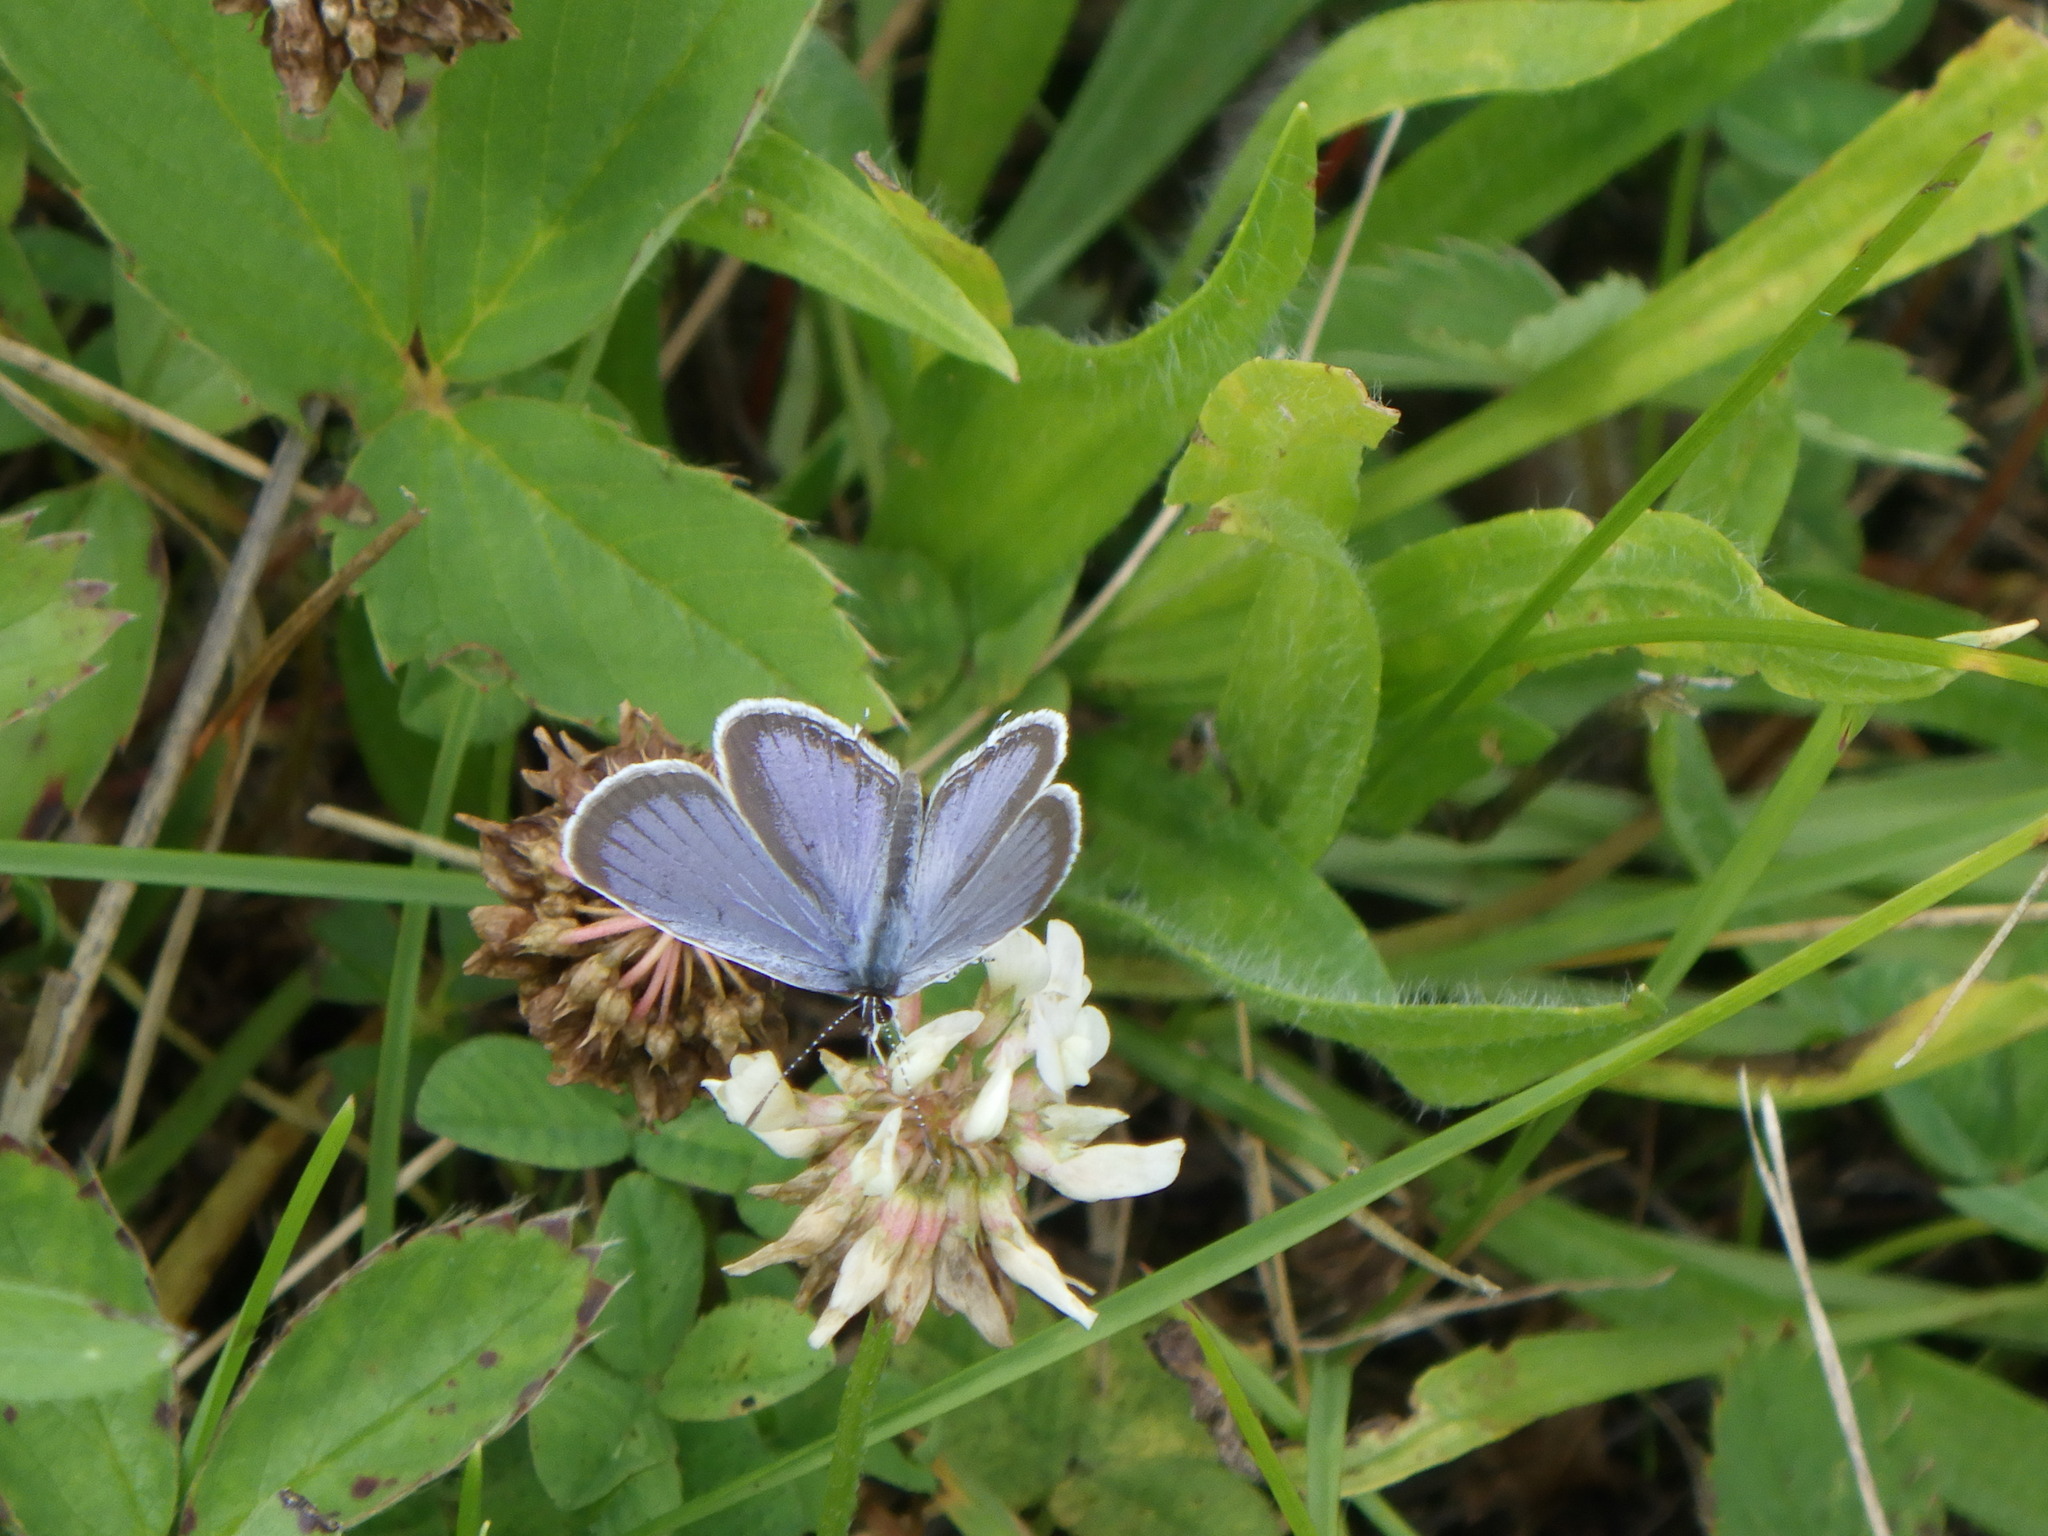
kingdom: Animalia
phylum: Arthropoda
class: Insecta
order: Lepidoptera
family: Lycaenidae
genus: Elkalyce
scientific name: Elkalyce comyntas
